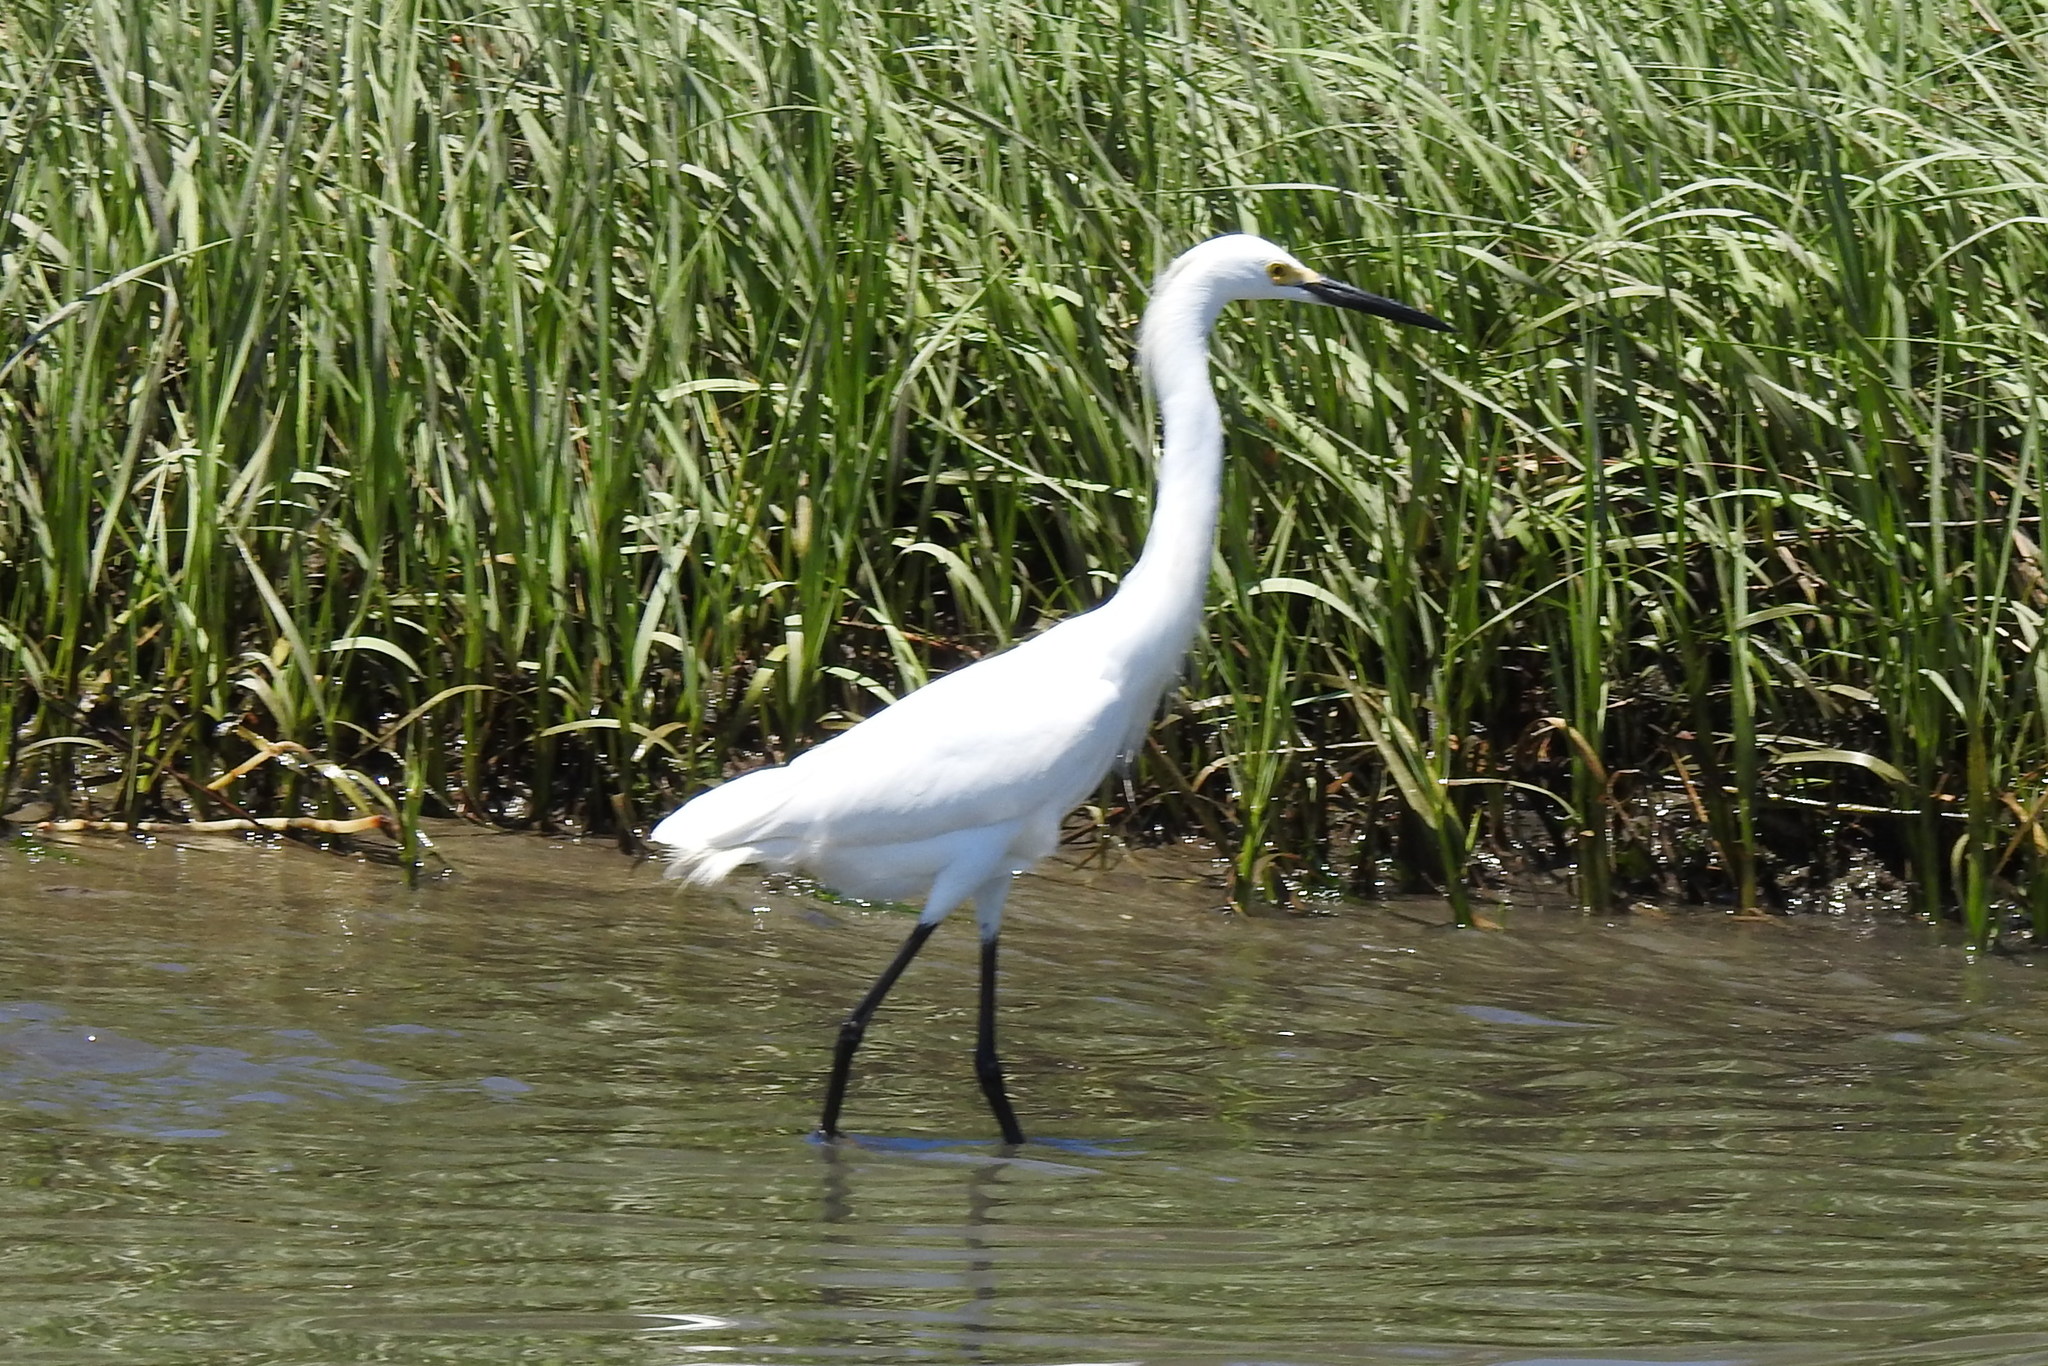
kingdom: Animalia
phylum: Chordata
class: Aves
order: Pelecaniformes
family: Ardeidae
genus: Egretta
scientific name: Egretta thula
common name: Snowy egret
